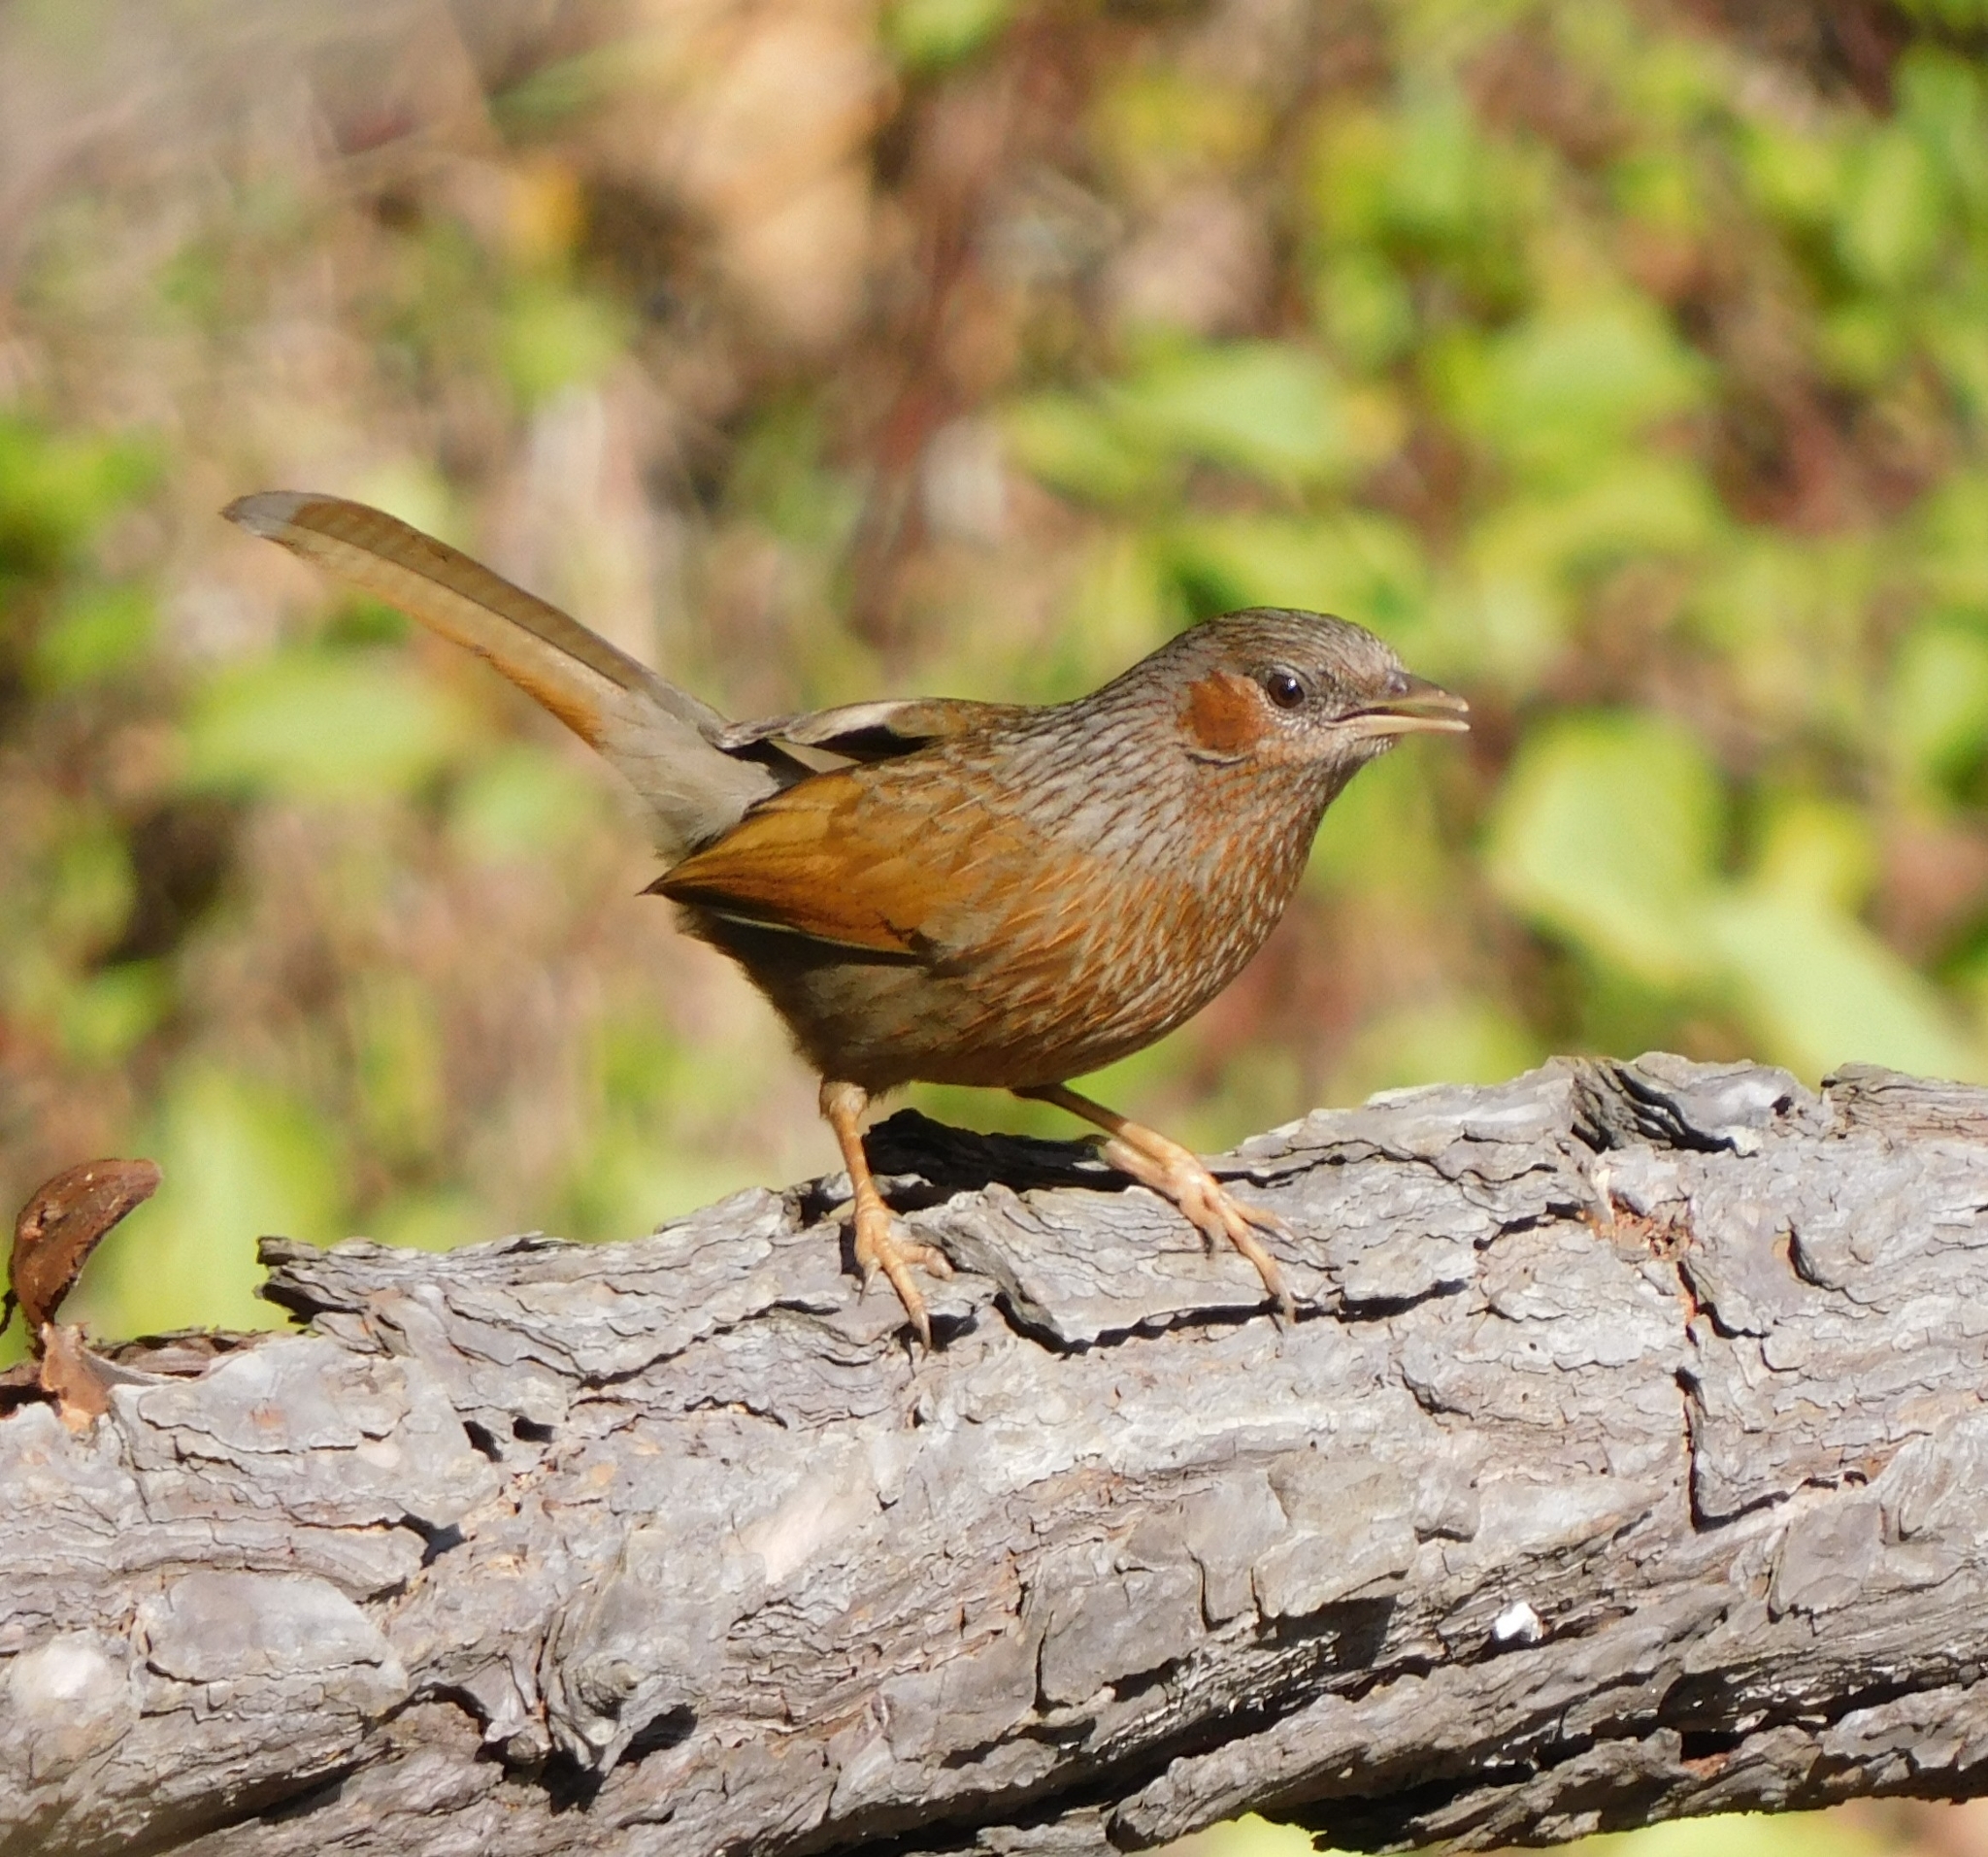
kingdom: Animalia
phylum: Chordata
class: Aves
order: Passeriformes
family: Leiothrichidae
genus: Trochalopteron
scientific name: Trochalopteron lineatum
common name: Streaked laughingthrush
